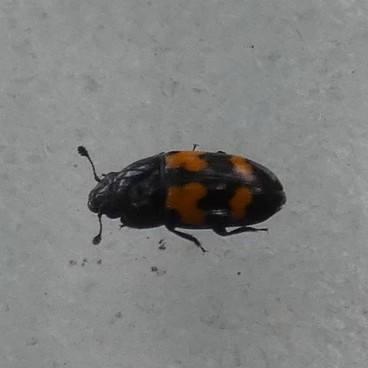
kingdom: Animalia
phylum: Arthropoda
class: Insecta
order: Coleoptera
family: Nitidulidae
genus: Glischrochilus
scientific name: Glischrochilus fasciatus
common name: Picnic beetle
